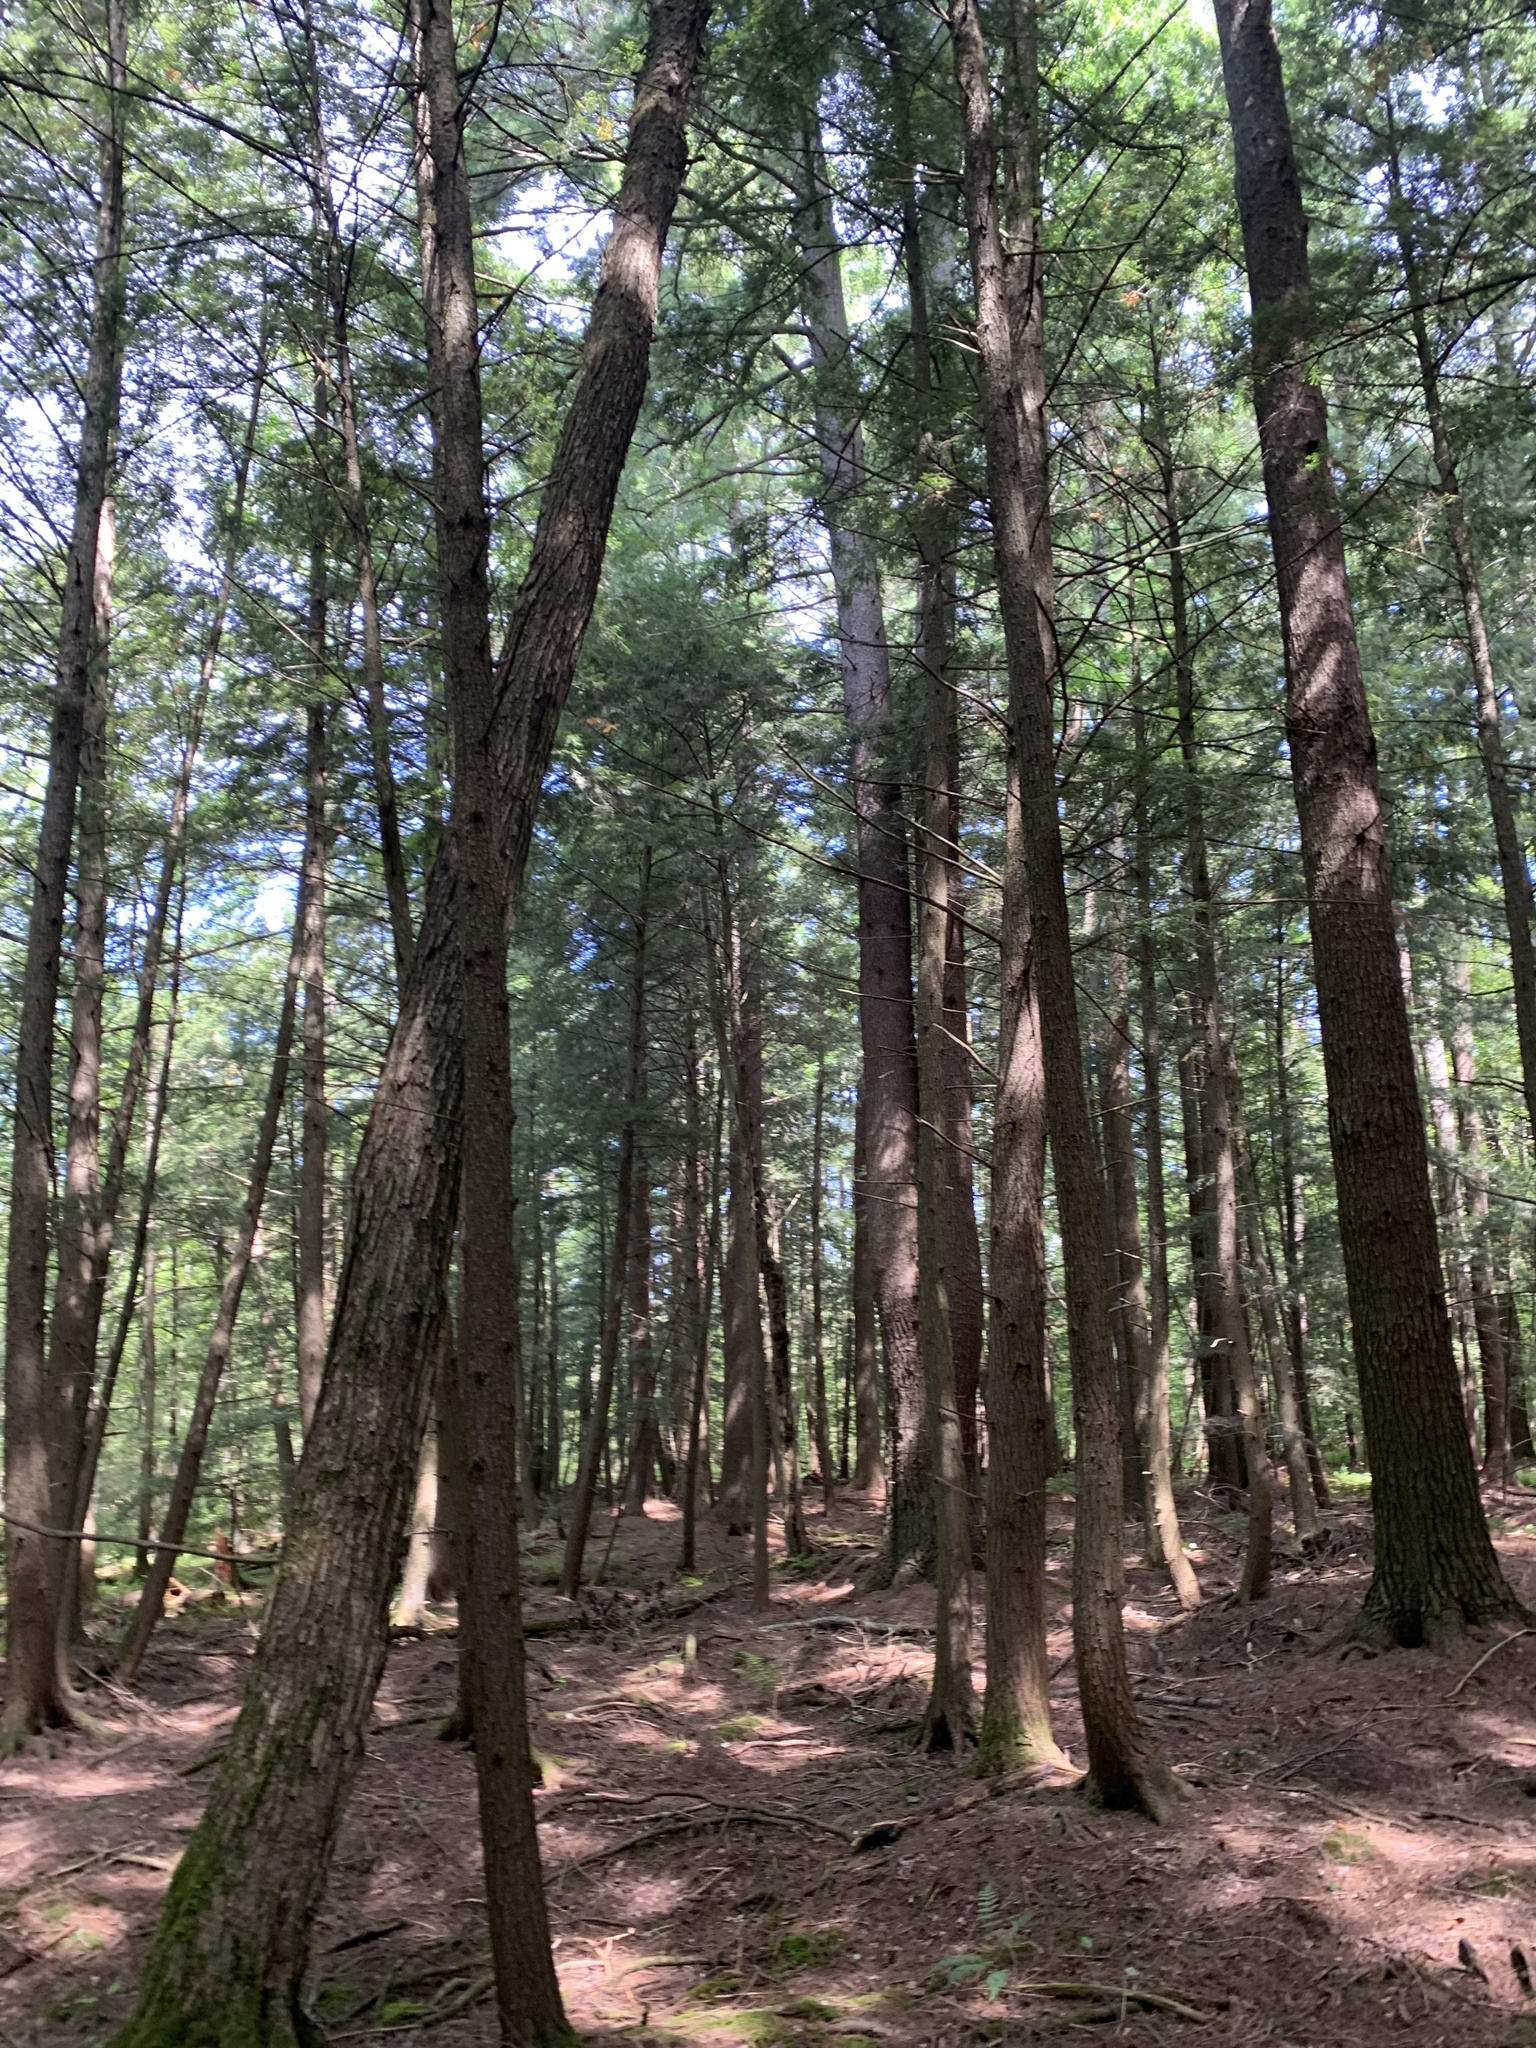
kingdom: Plantae
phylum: Tracheophyta
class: Pinopsida
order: Pinales
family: Pinaceae
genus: Tsuga
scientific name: Tsuga canadensis
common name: Eastern hemlock
